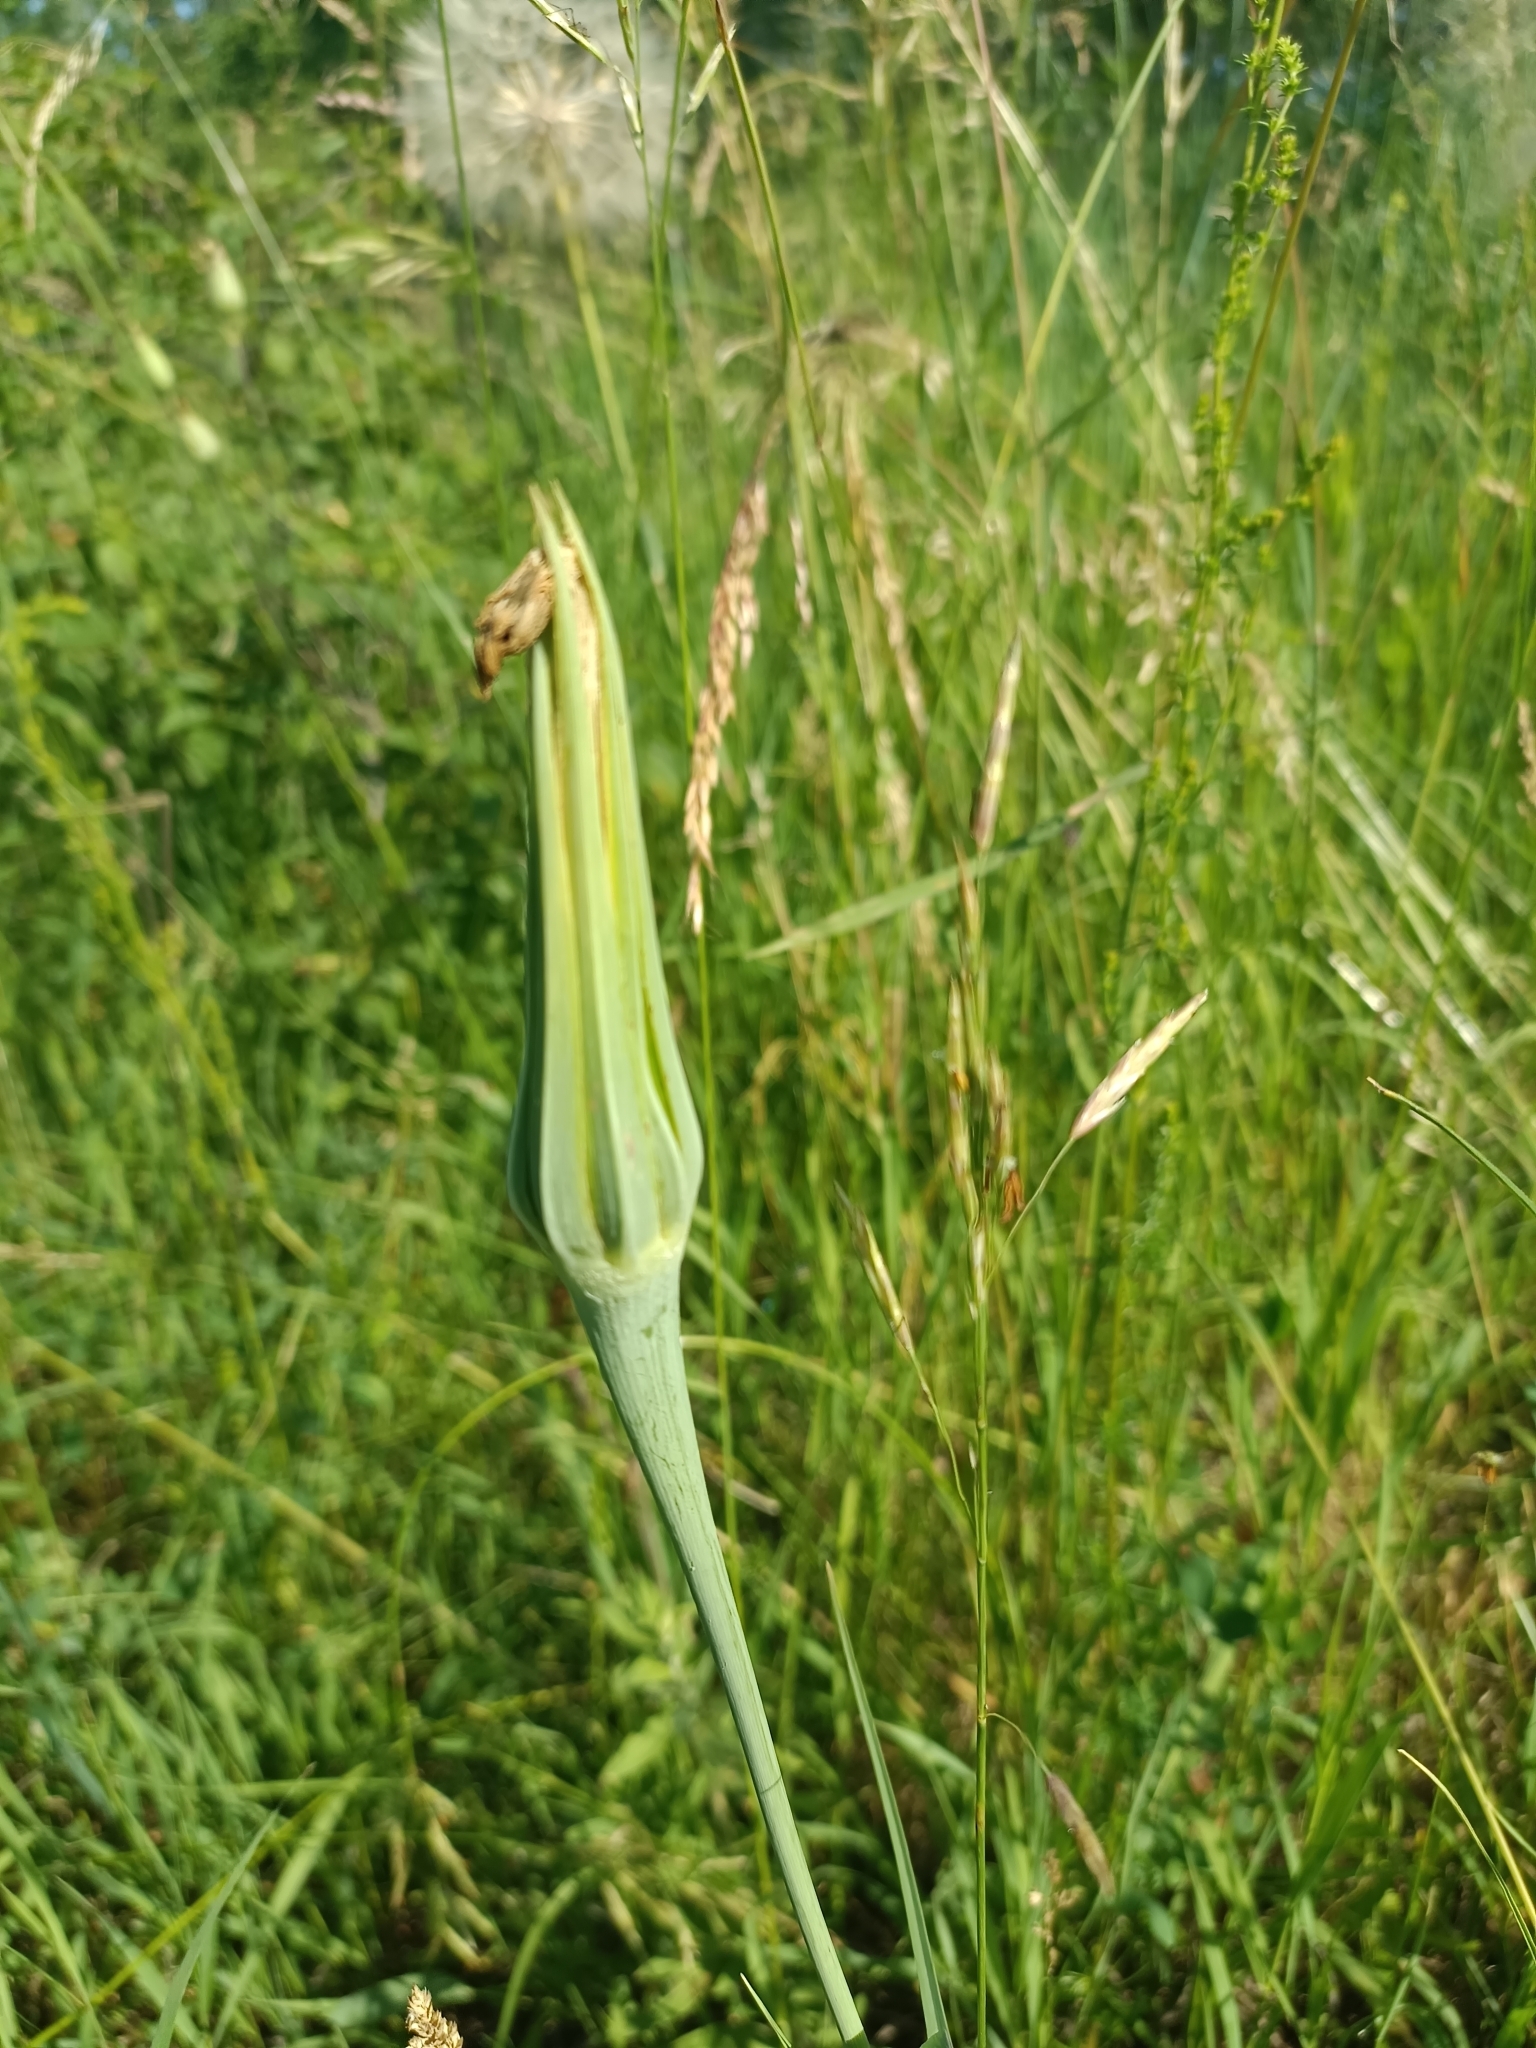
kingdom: Plantae
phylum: Tracheophyta
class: Magnoliopsida
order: Asterales
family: Asteraceae
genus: Tragopogon
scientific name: Tragopogon dubius
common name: Yellow salsify
